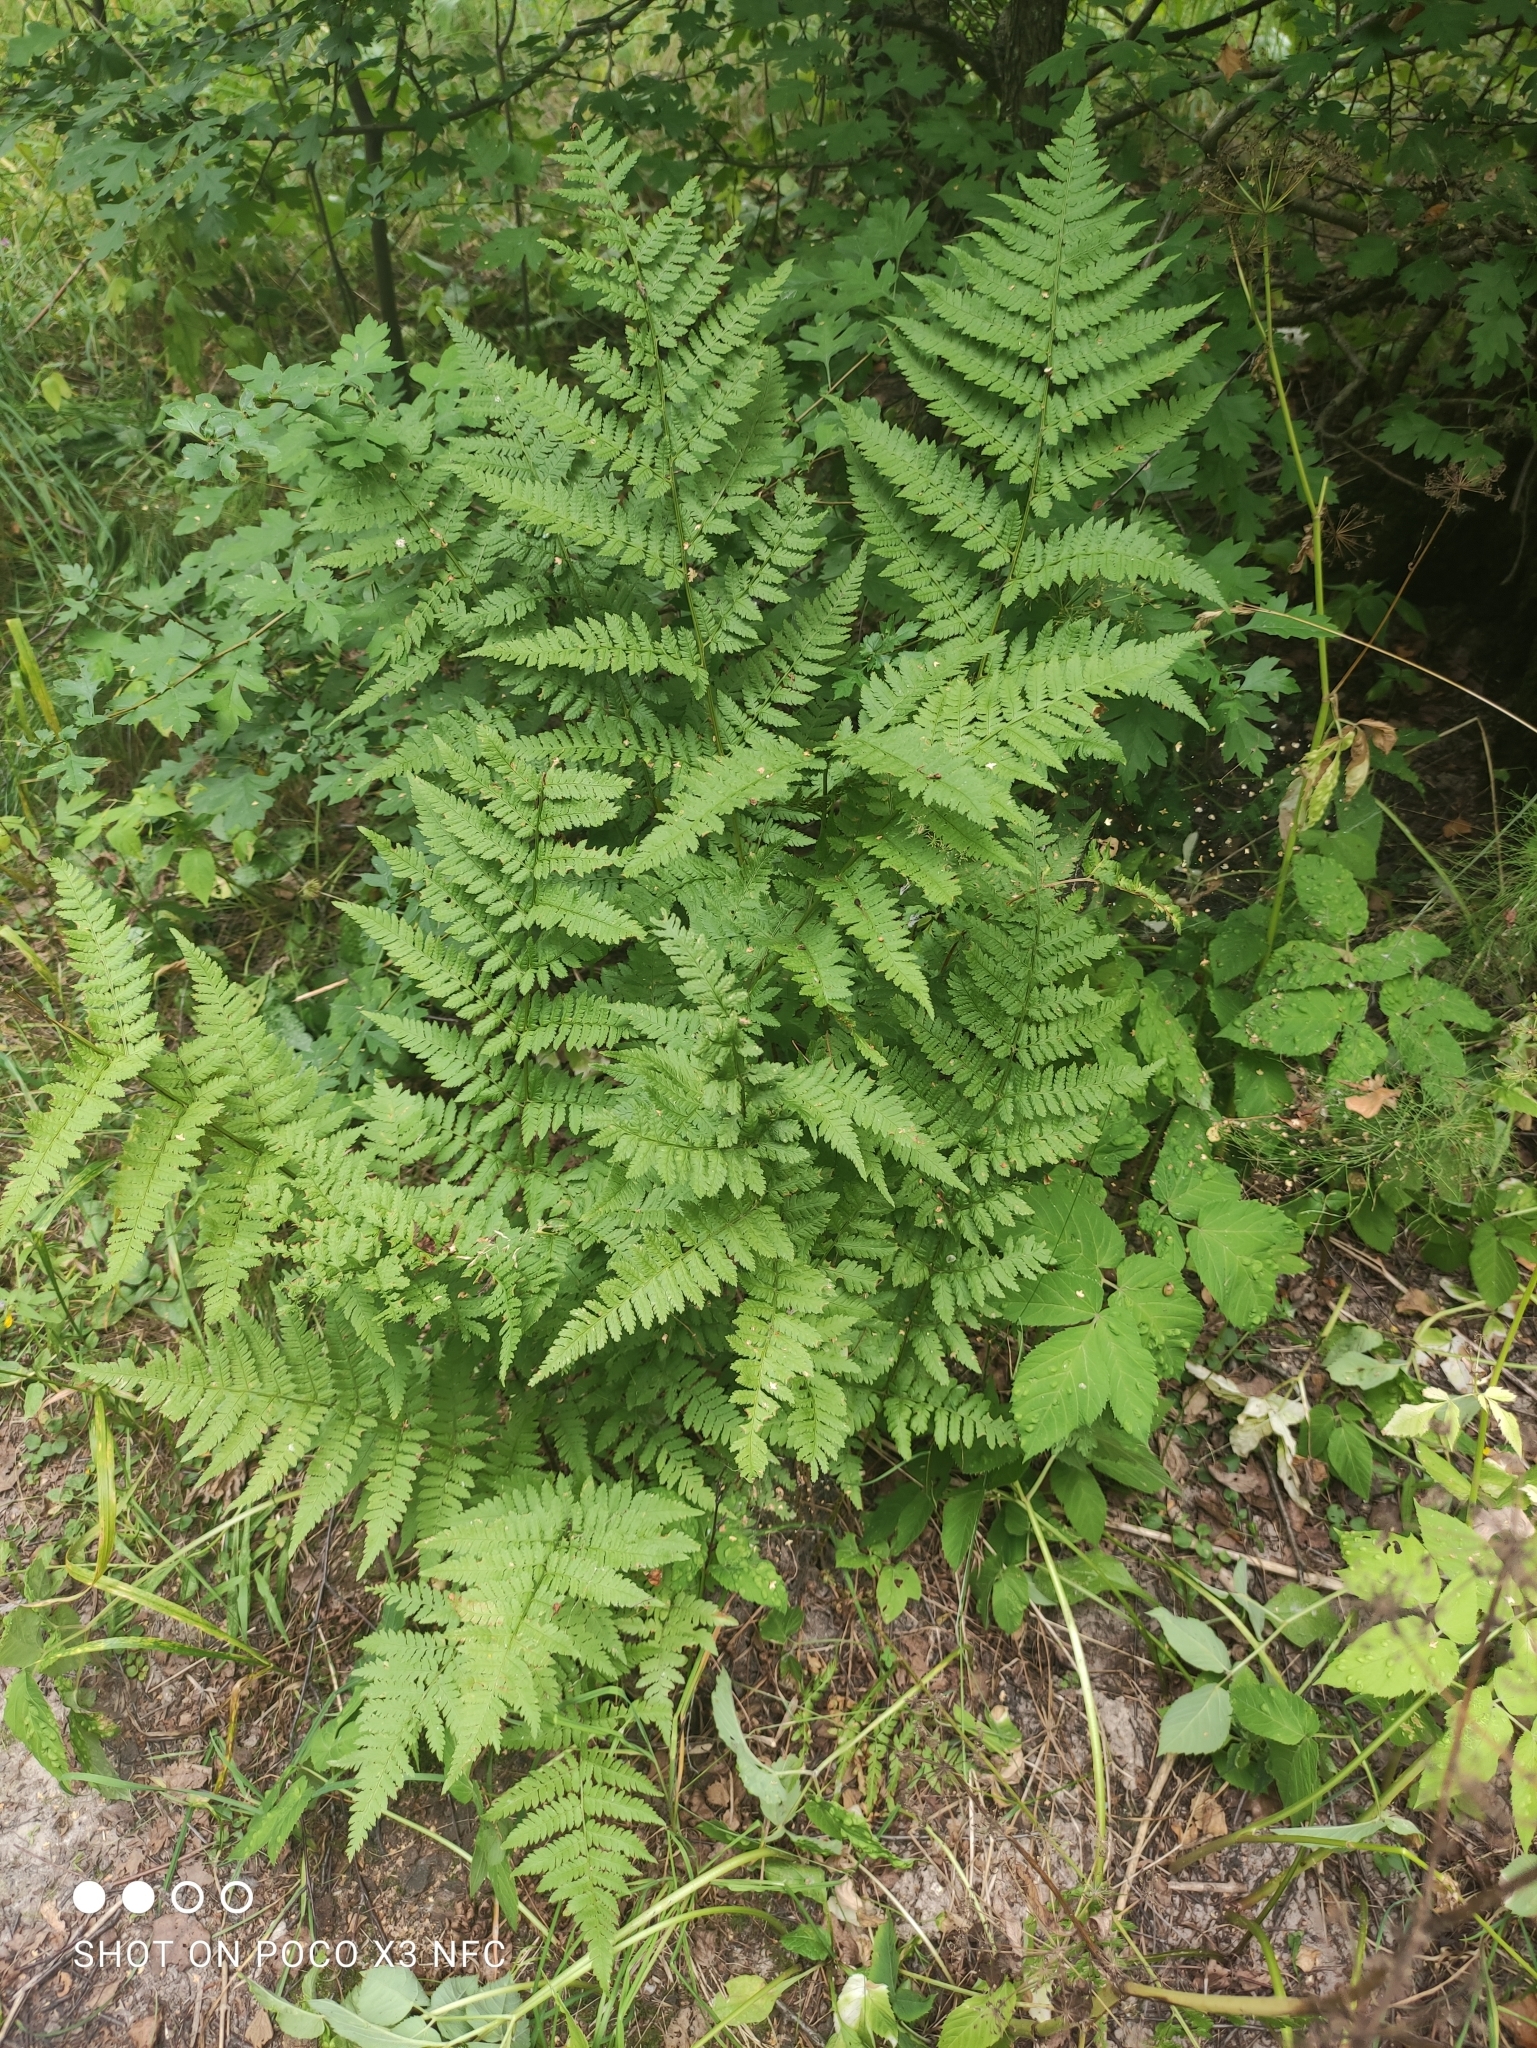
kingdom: Plantae
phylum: Tracheophyta
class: Polypodiopsida
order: Polypodiales
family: Dryopteridaceae
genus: Dryopteris
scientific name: Dryopteris carthusiana
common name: Narrow buckler-fern
